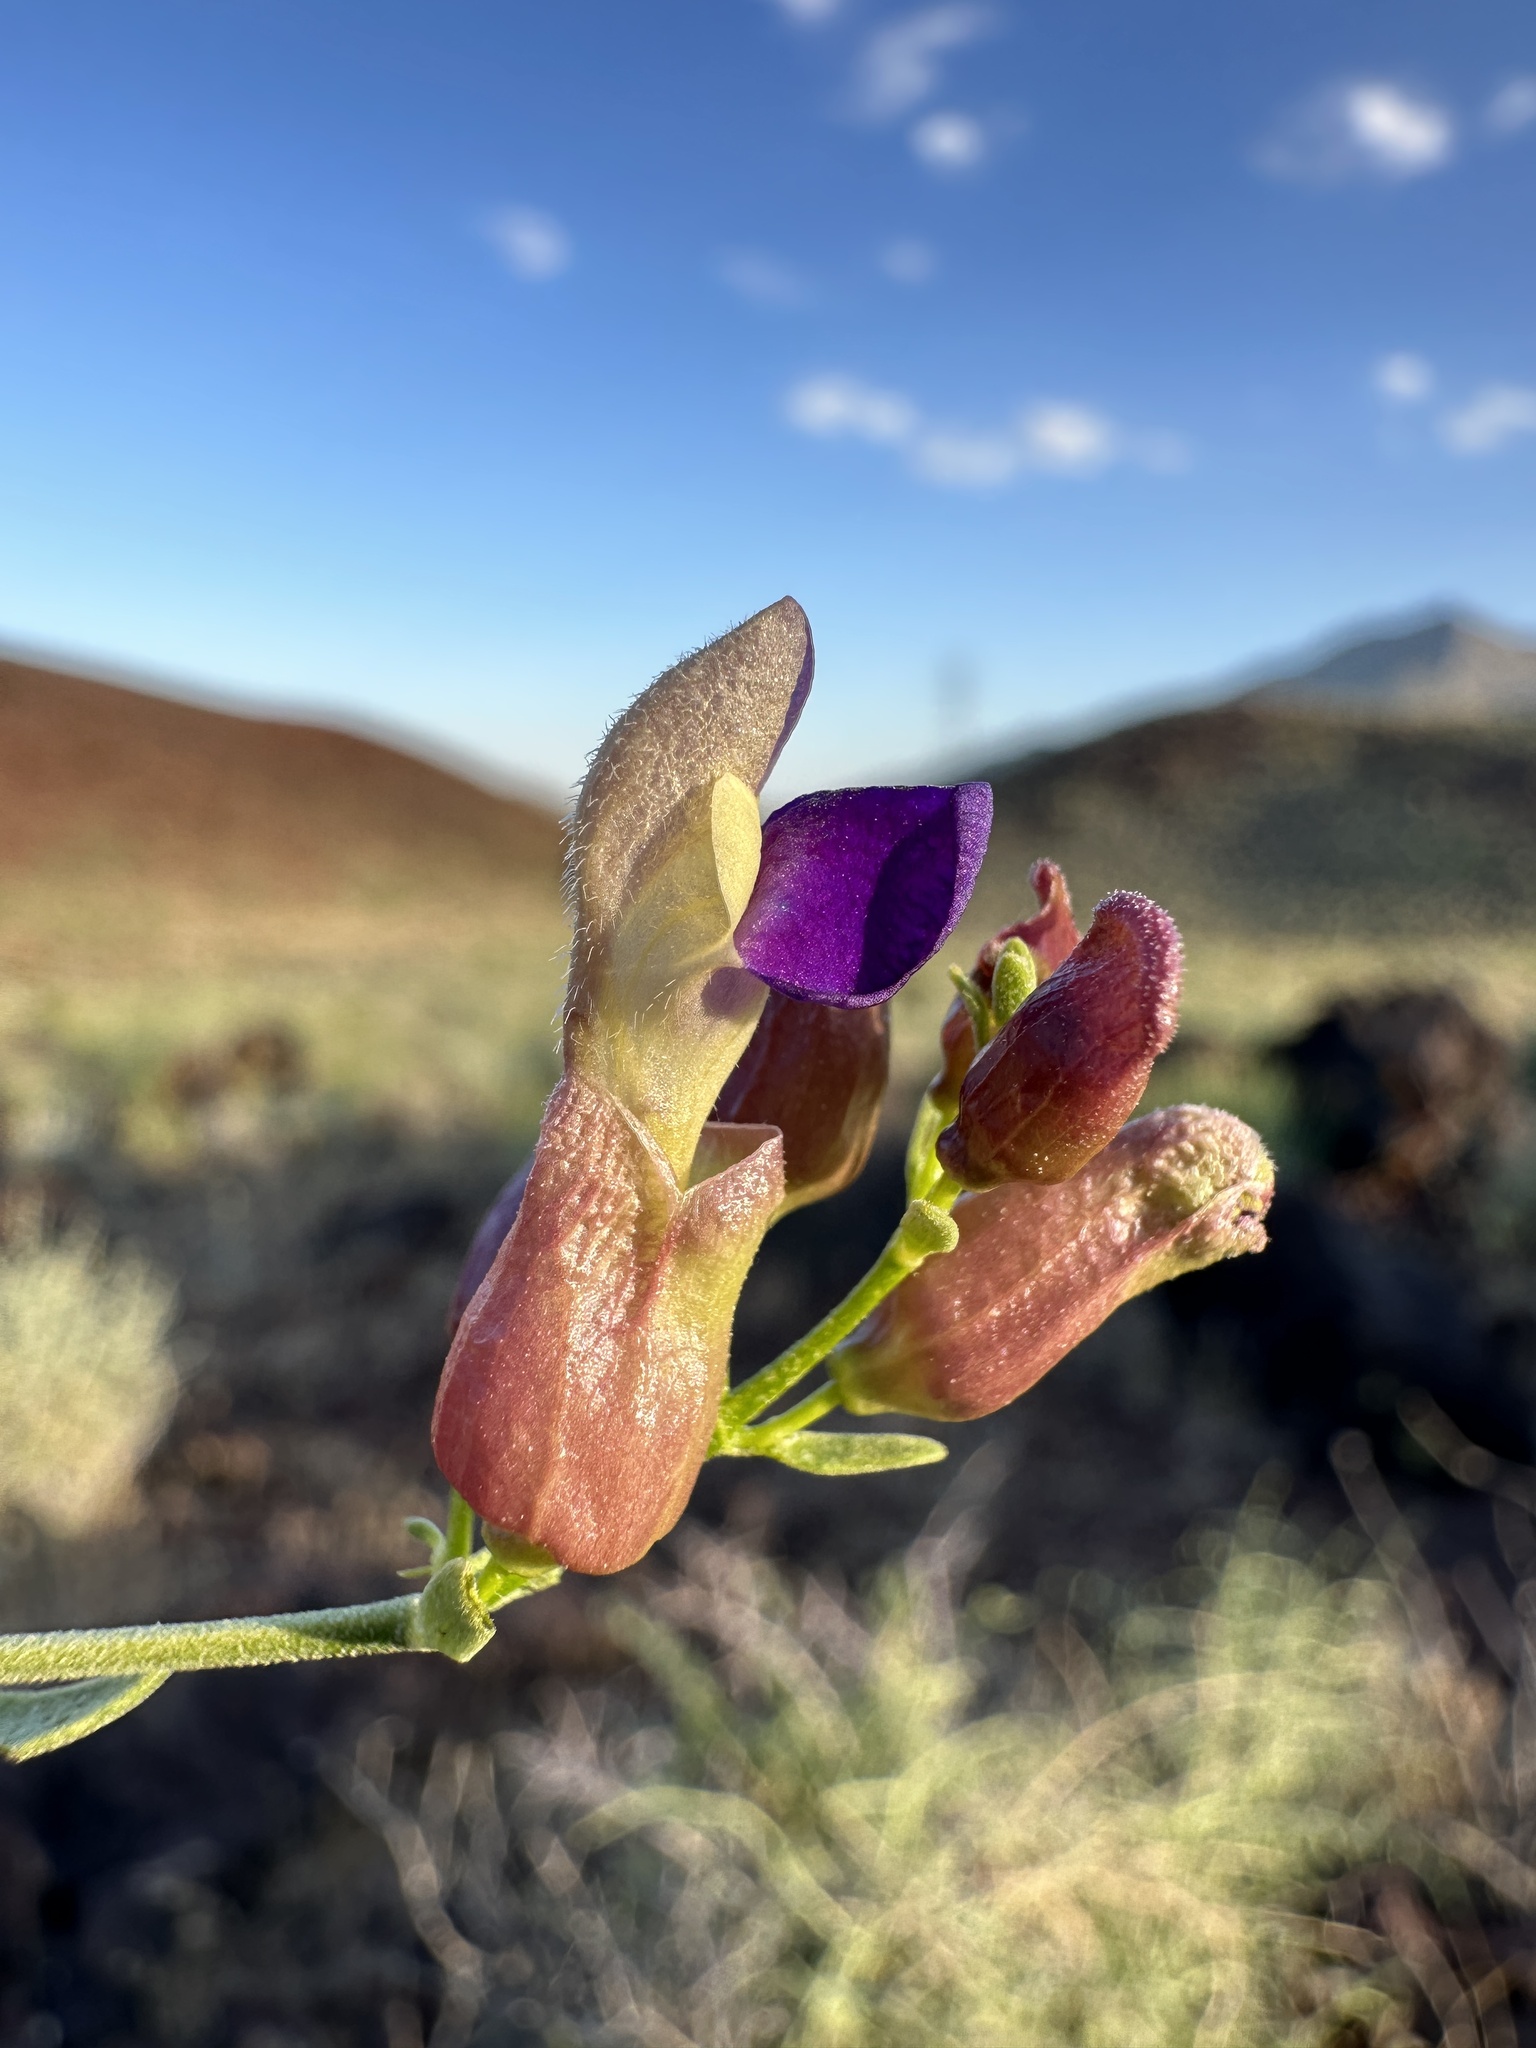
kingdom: Plantae
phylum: Tracheophyta
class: Magnoliopsida
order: Lamiales
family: Lamiaceae
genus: Scutellaria
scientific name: Scutellaria mexicana
